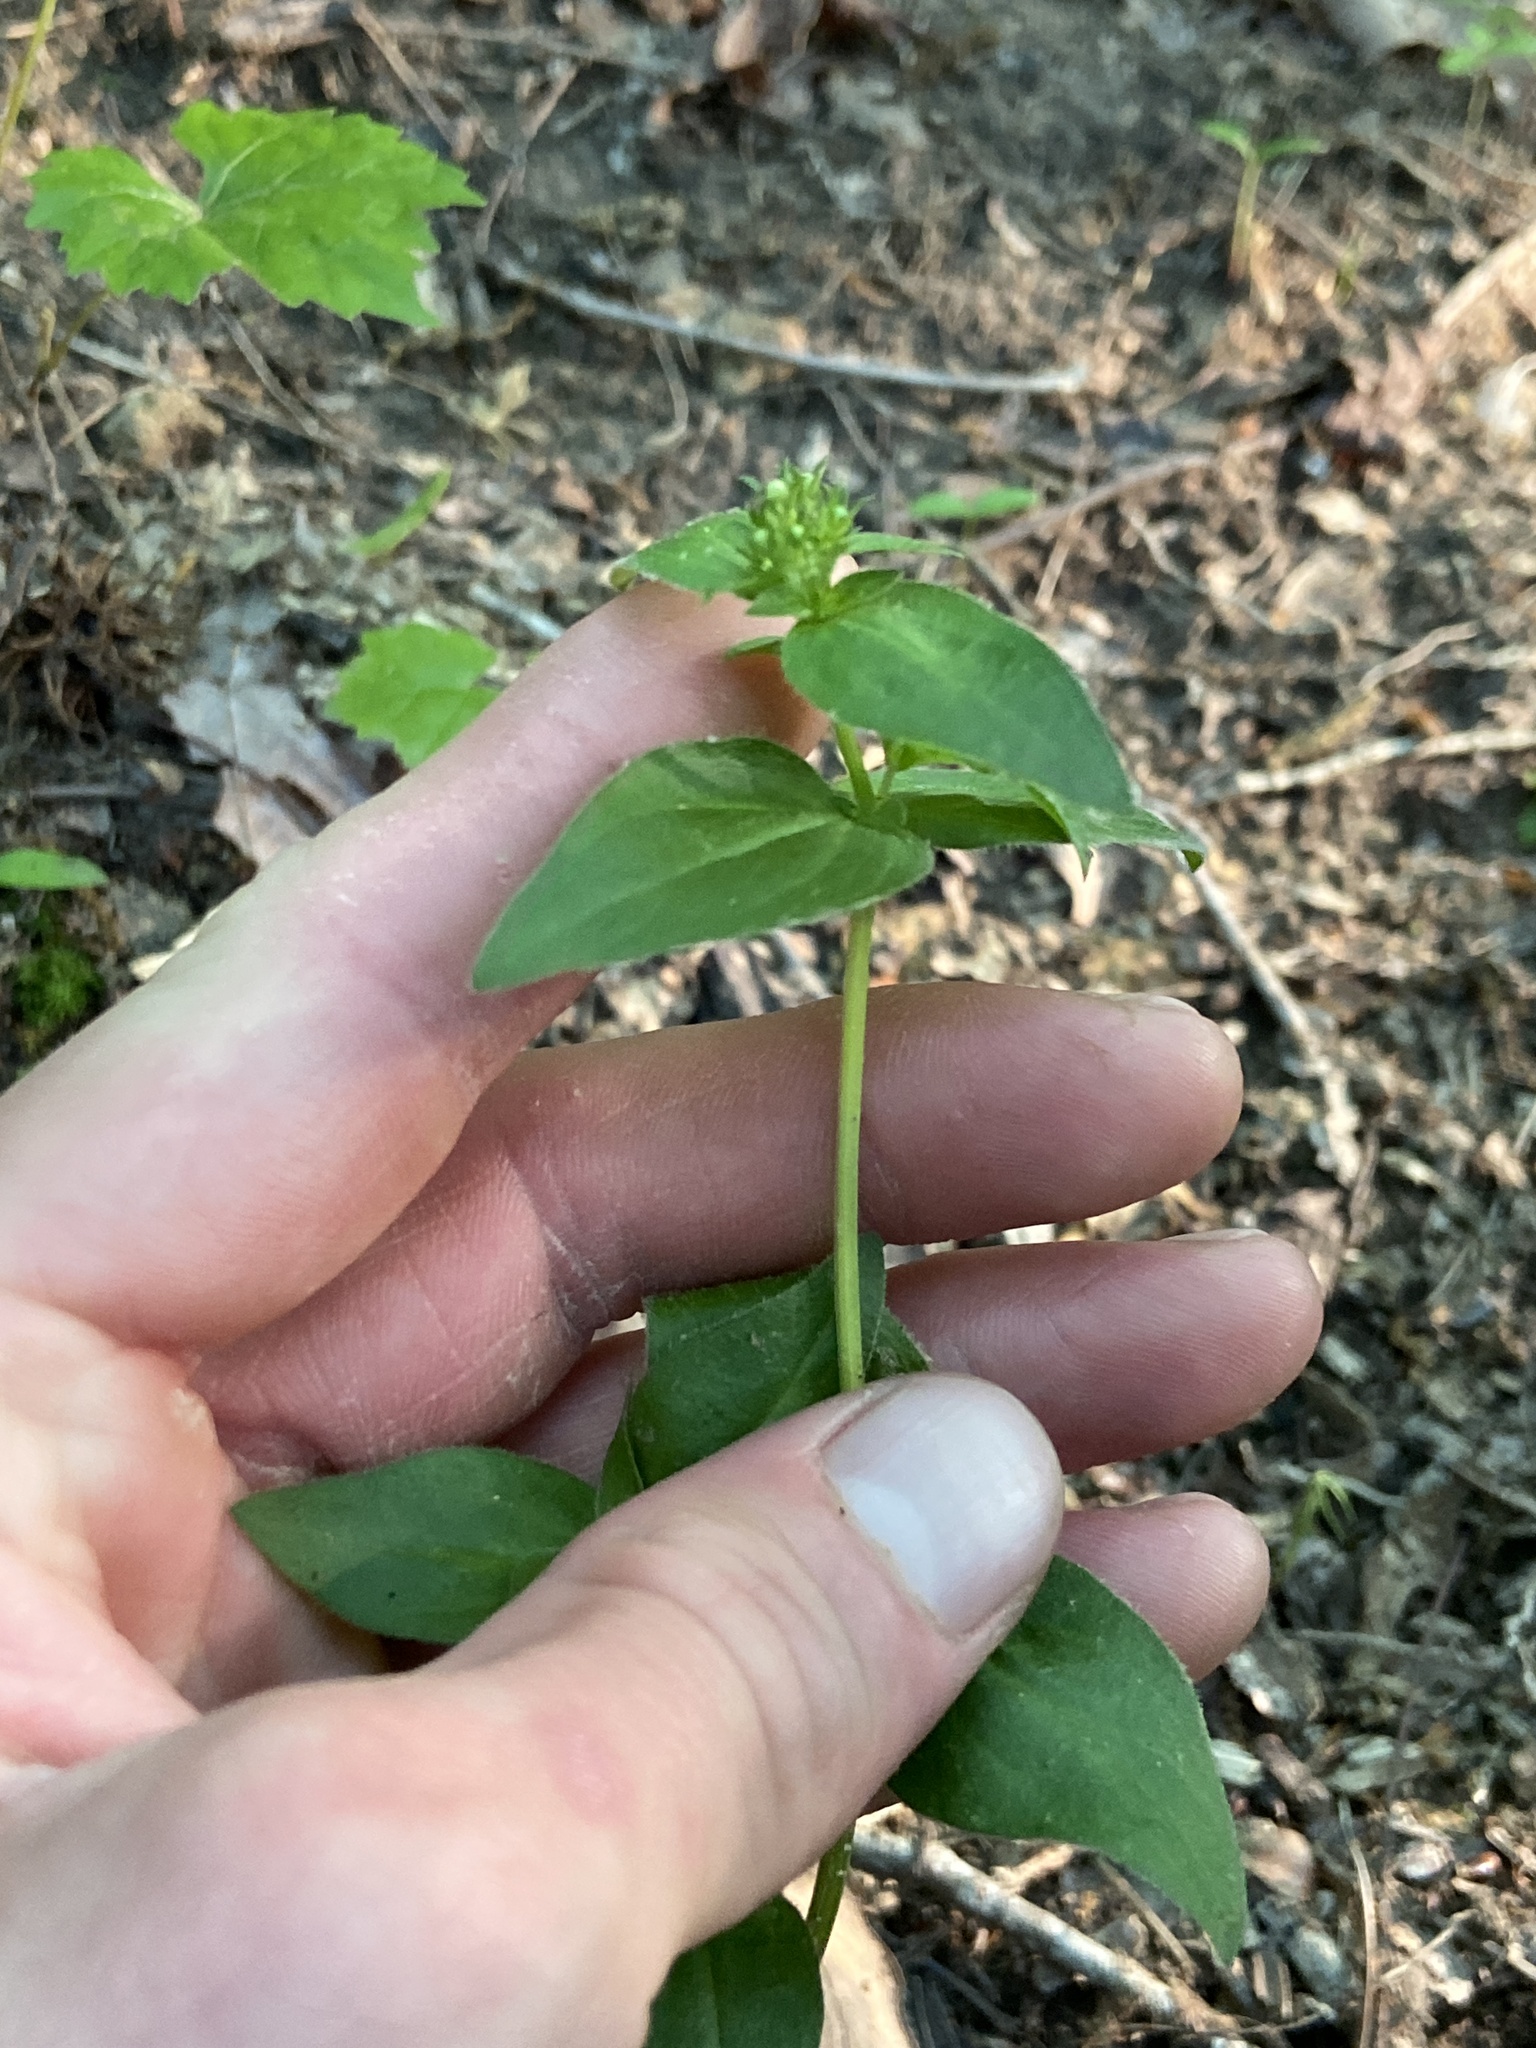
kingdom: Plantae
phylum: Tracheophyta
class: Magnoliopsida
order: Gentianales
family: Rubiaceae
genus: Houstonia
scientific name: Houstonia purpurea
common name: Summer bluet
